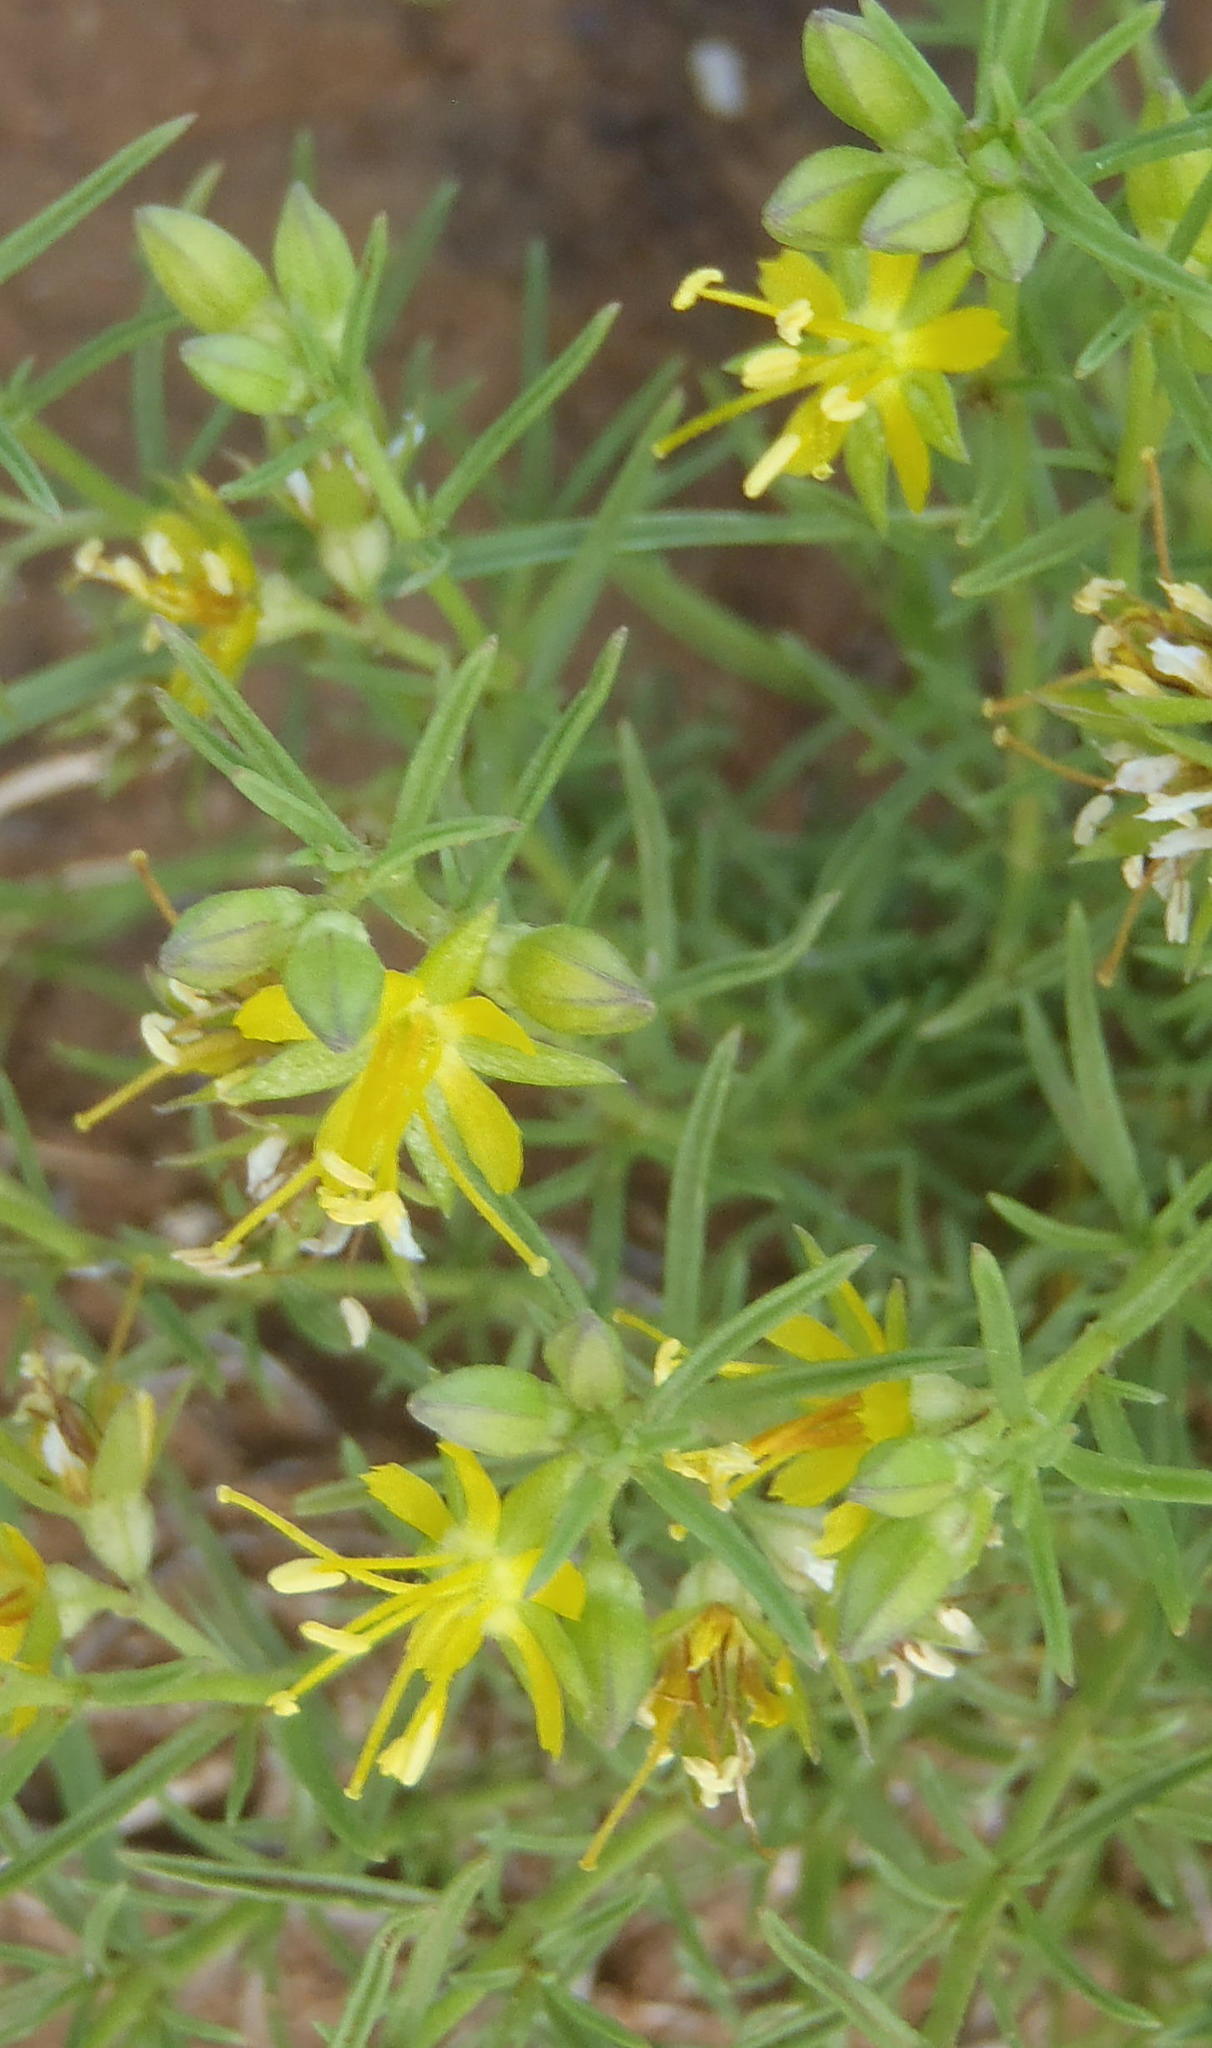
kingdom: Plantae
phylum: Tracheophyta
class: Magnoliopsida
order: Vahliales
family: Vahliaceae
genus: Vahlia
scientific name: Vahlia capensis
